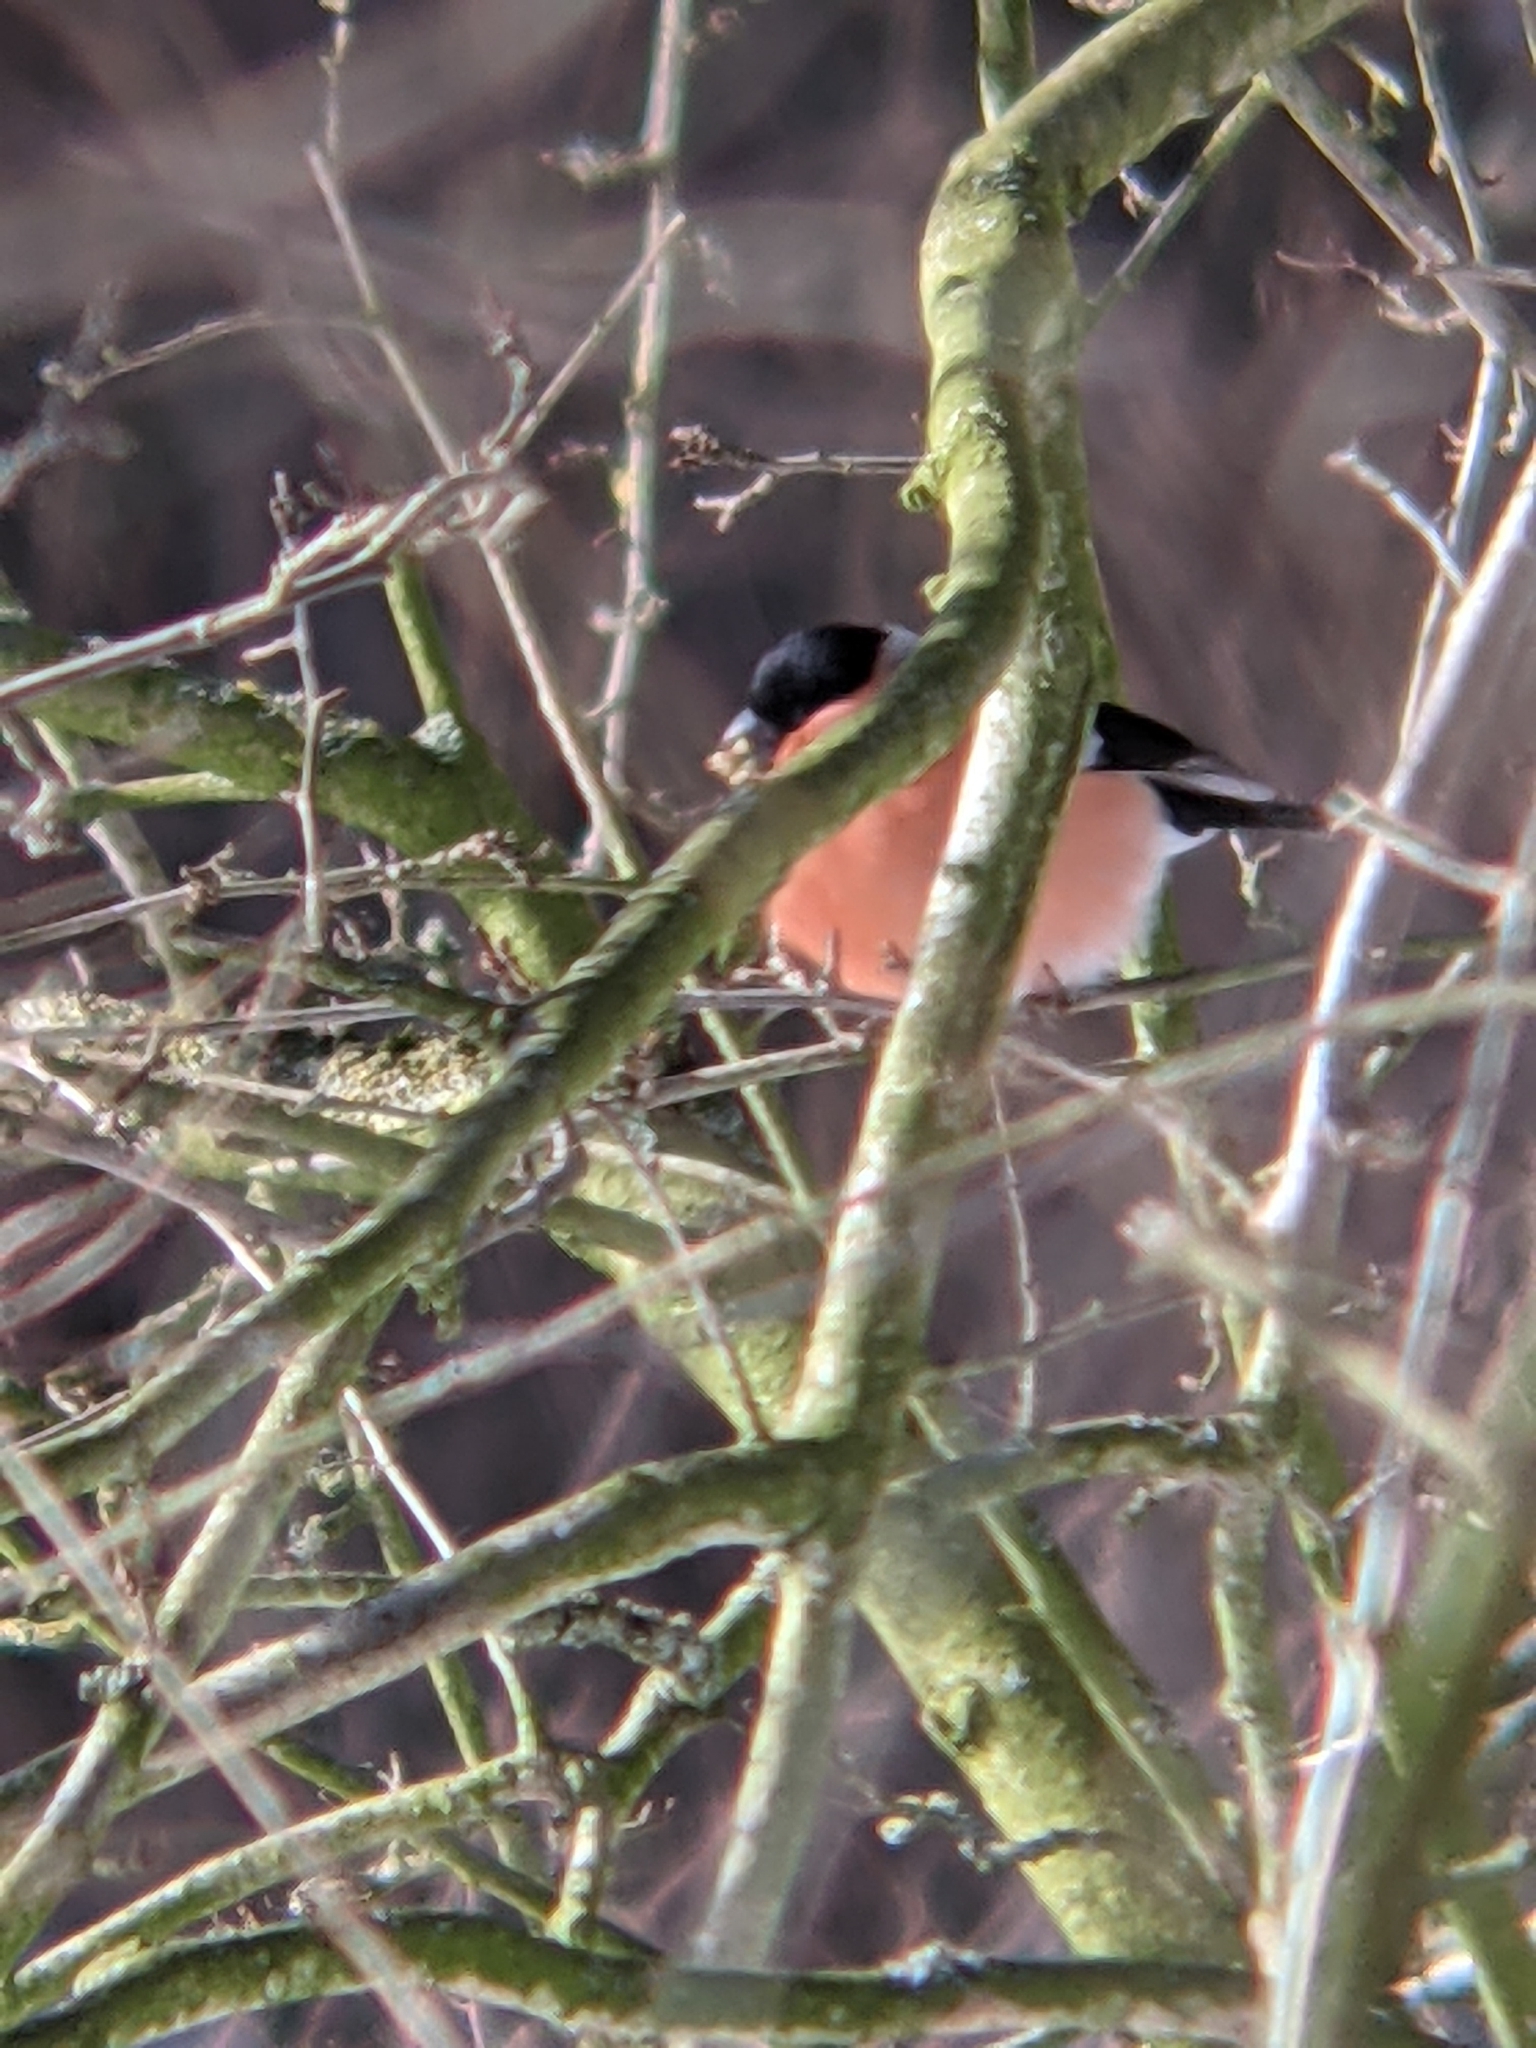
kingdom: Animalia
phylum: Chordata
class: Aves
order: Passeriformes
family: Fringillidae
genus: Pyrrhula
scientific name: Pyrrhula pyrrhula
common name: Eurasian bullfinch
